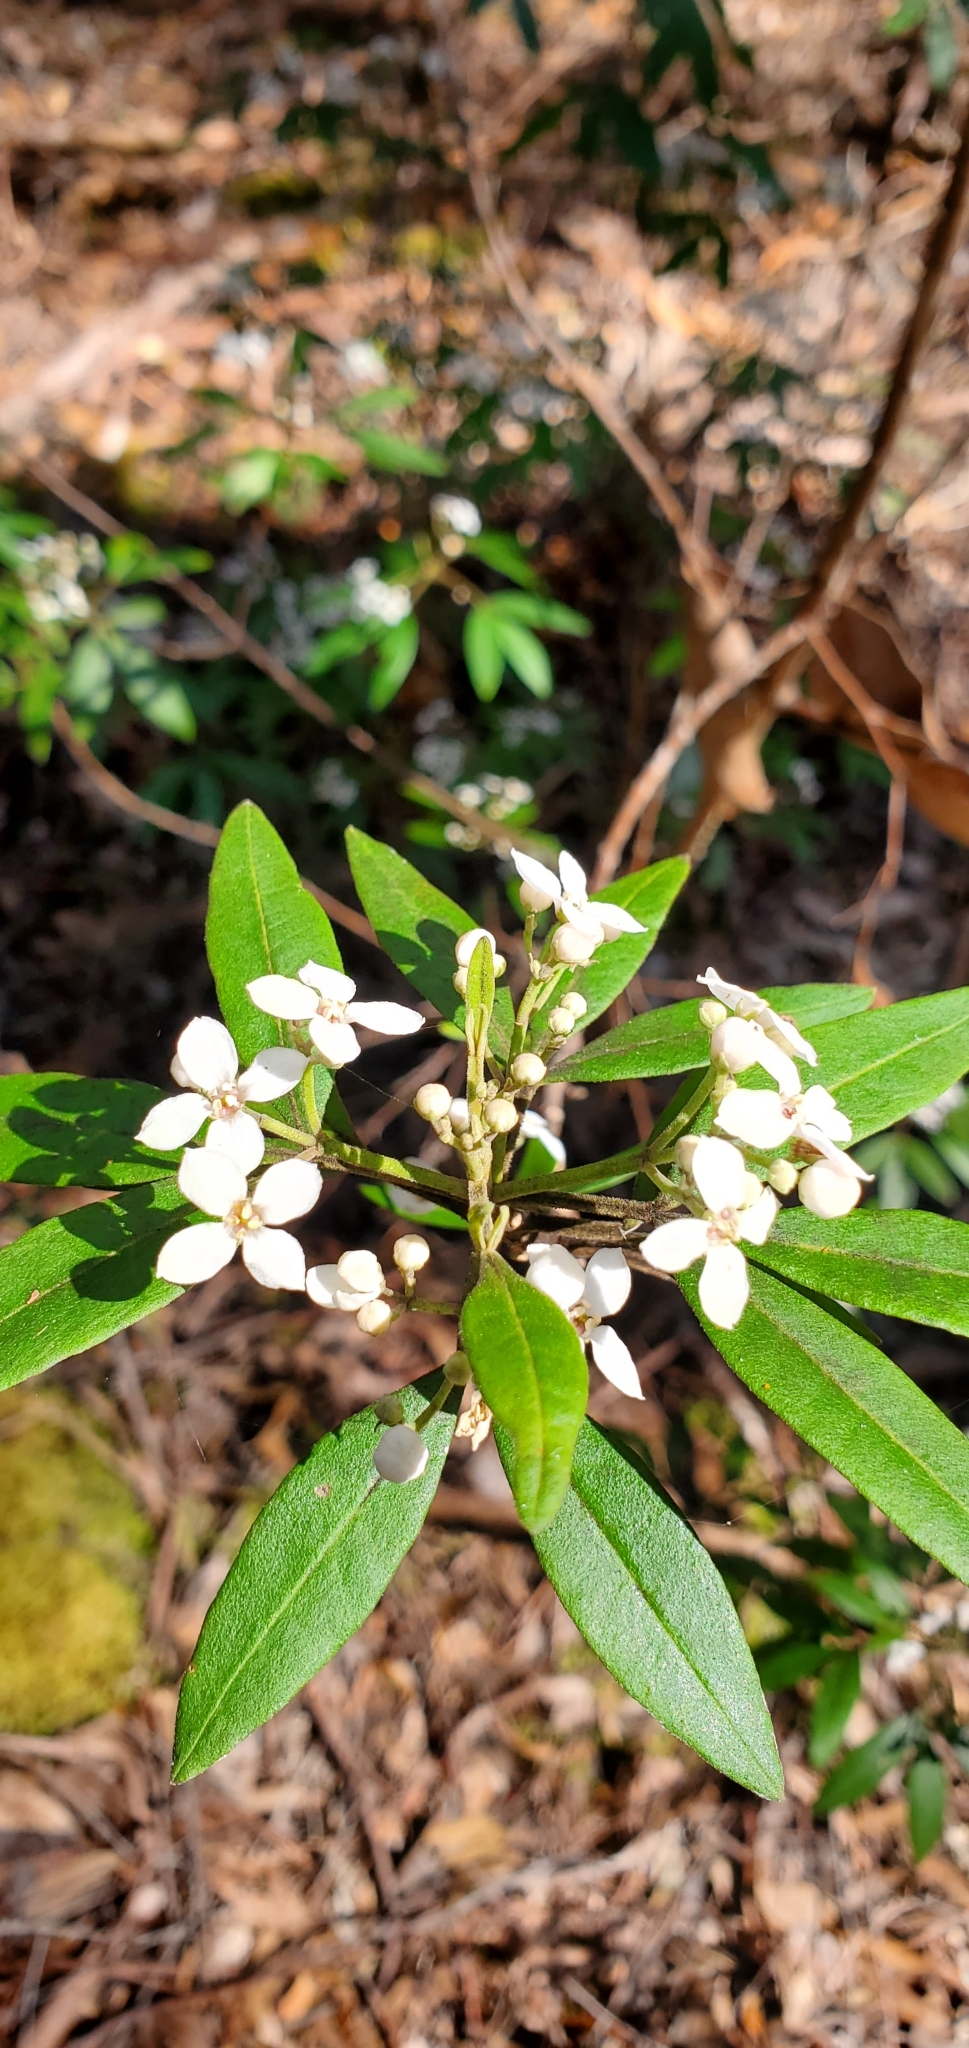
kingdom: Plantae
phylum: Tracheophyta
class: Magnoliopsida
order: Sapindales
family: Rutaceae
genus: Zieria
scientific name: Zieria arborescens
